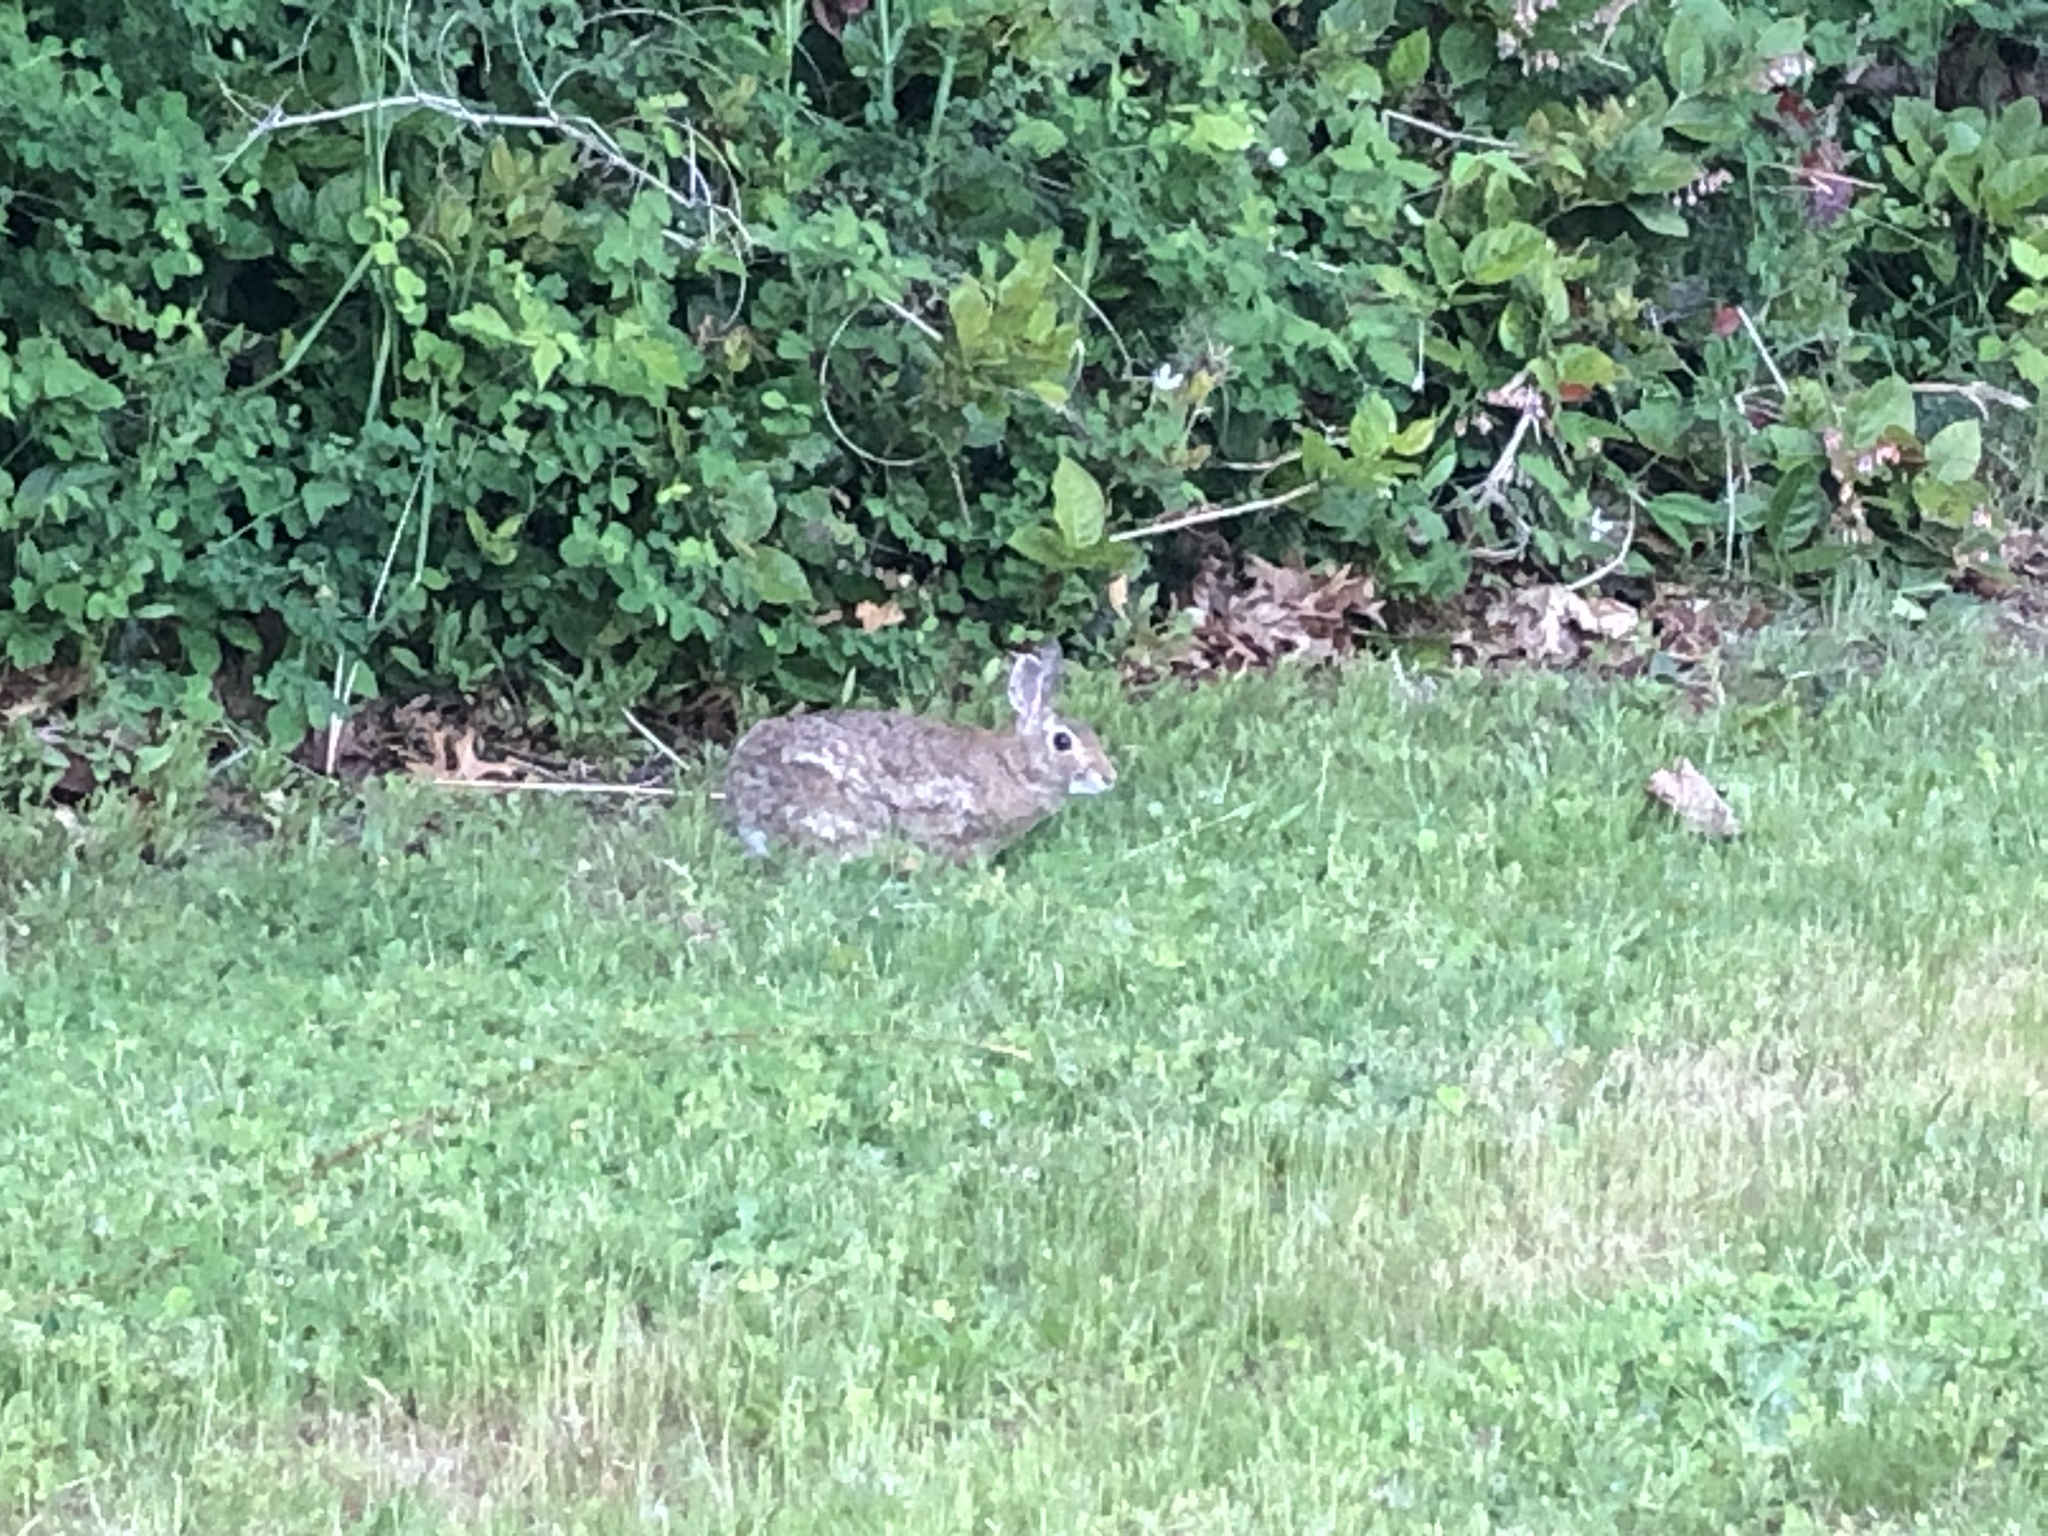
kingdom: Animalia
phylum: Chordata
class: Mammalia
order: Lagomorpha
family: Leporidae
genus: Sylvilagus
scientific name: Sylvilagus floridanus
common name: Eastern cottontail
